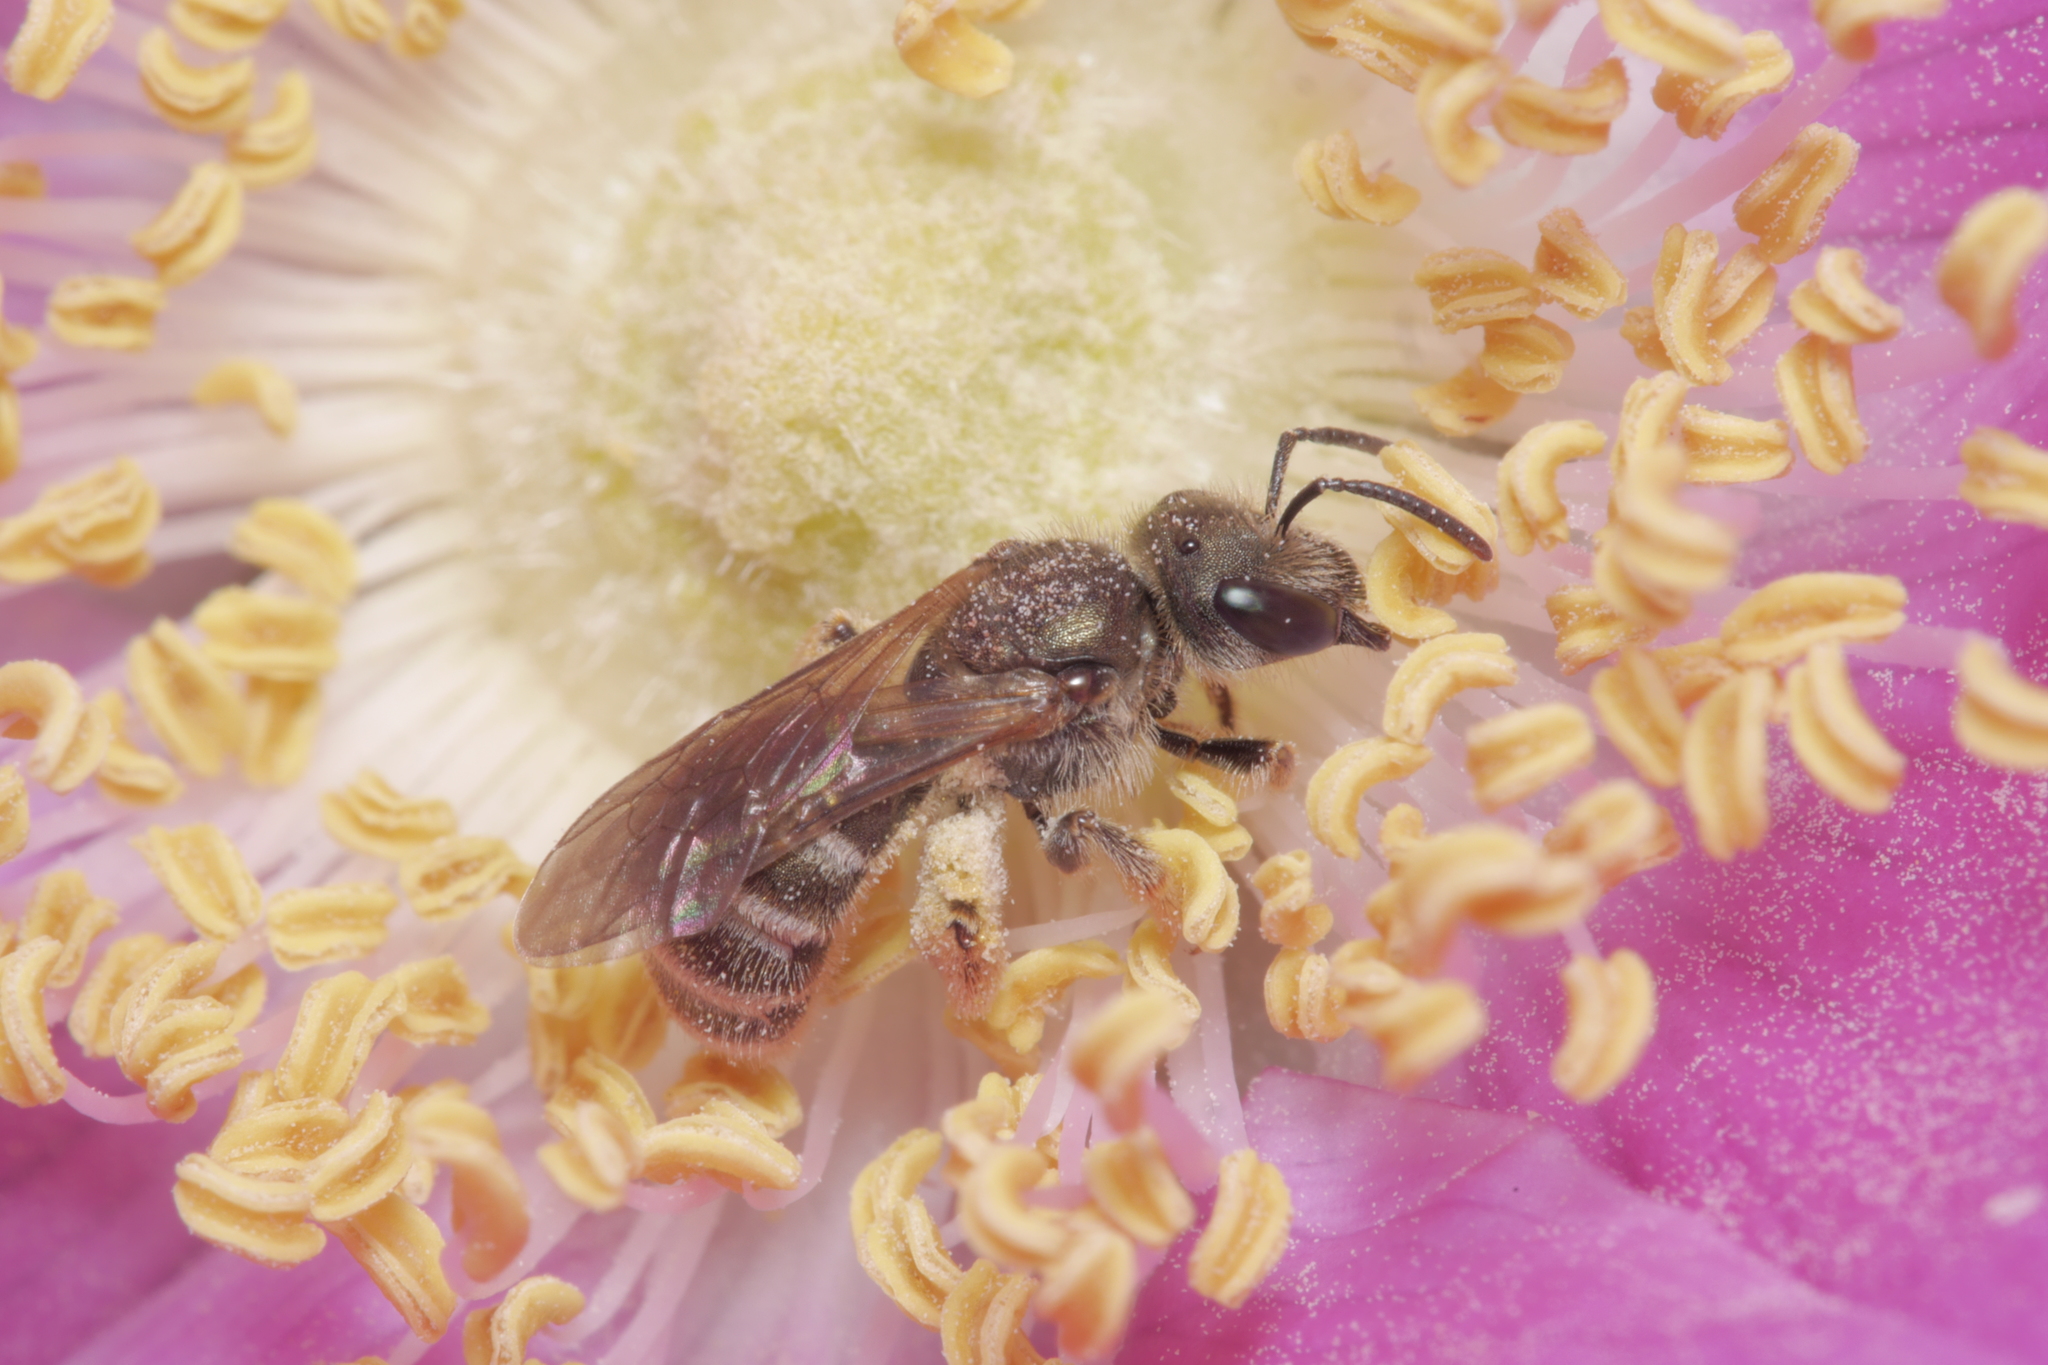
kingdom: Animalia
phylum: Arthropoda
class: Insecta
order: Hymenoptera
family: Halictidae
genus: Halictus
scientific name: Halictus tumulorum
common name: Bronze furrow bee
